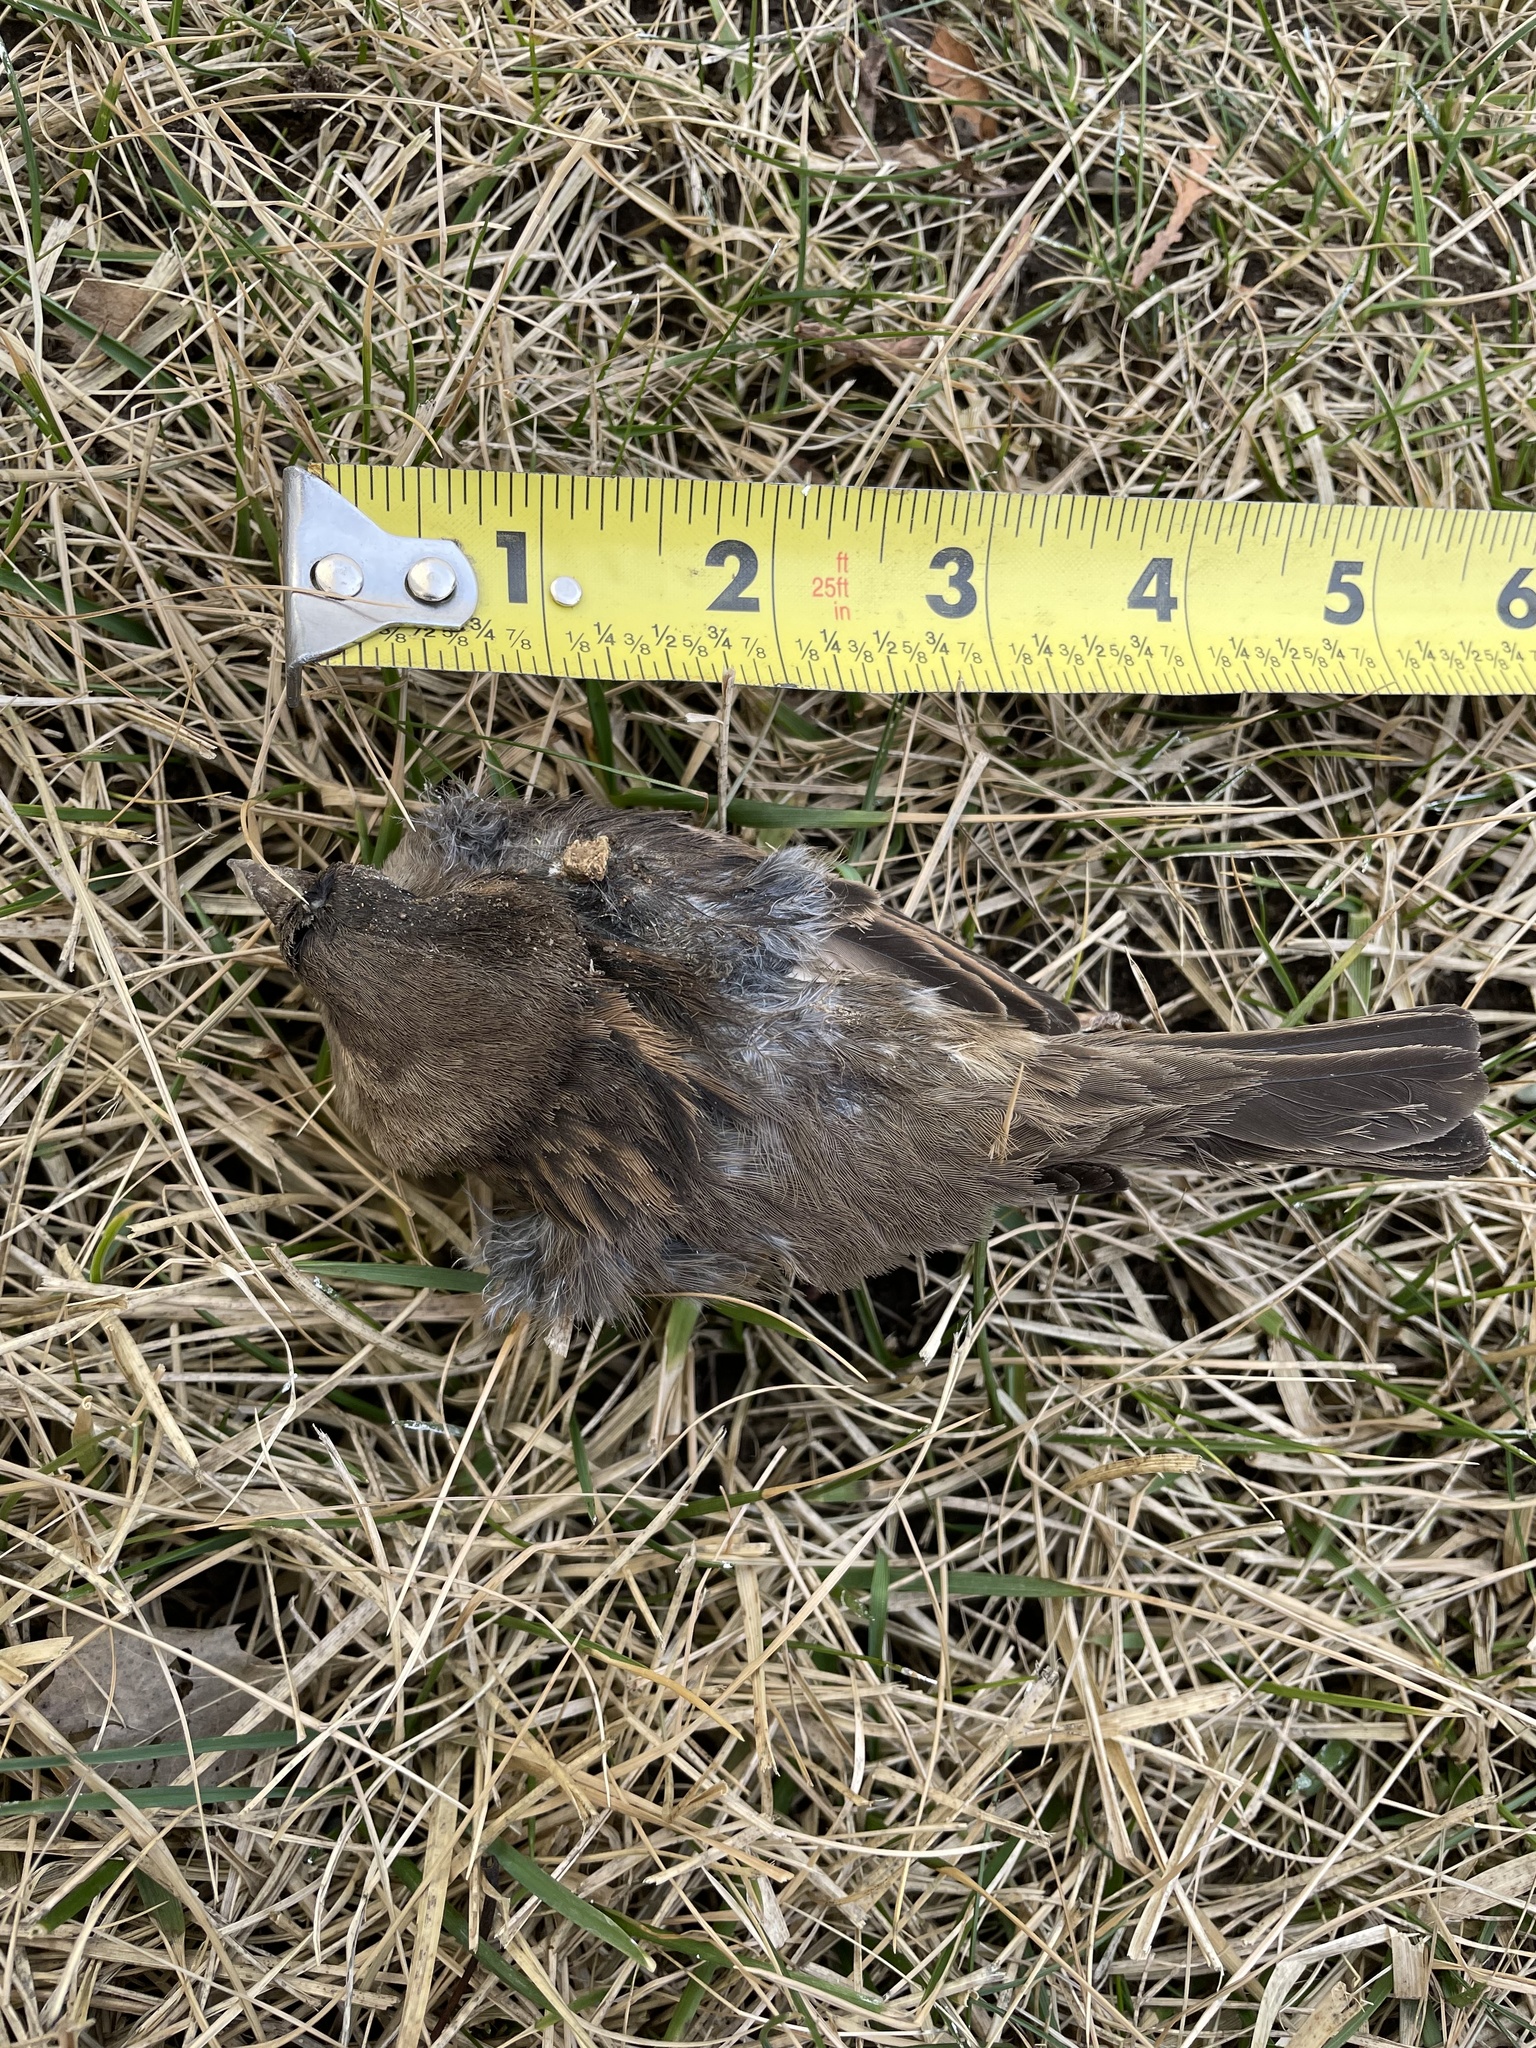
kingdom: Animalia
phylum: Chordata
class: Aves
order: Passeriformes
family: Passeridae
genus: Passer
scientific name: Passer domesticus
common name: House sparrow
